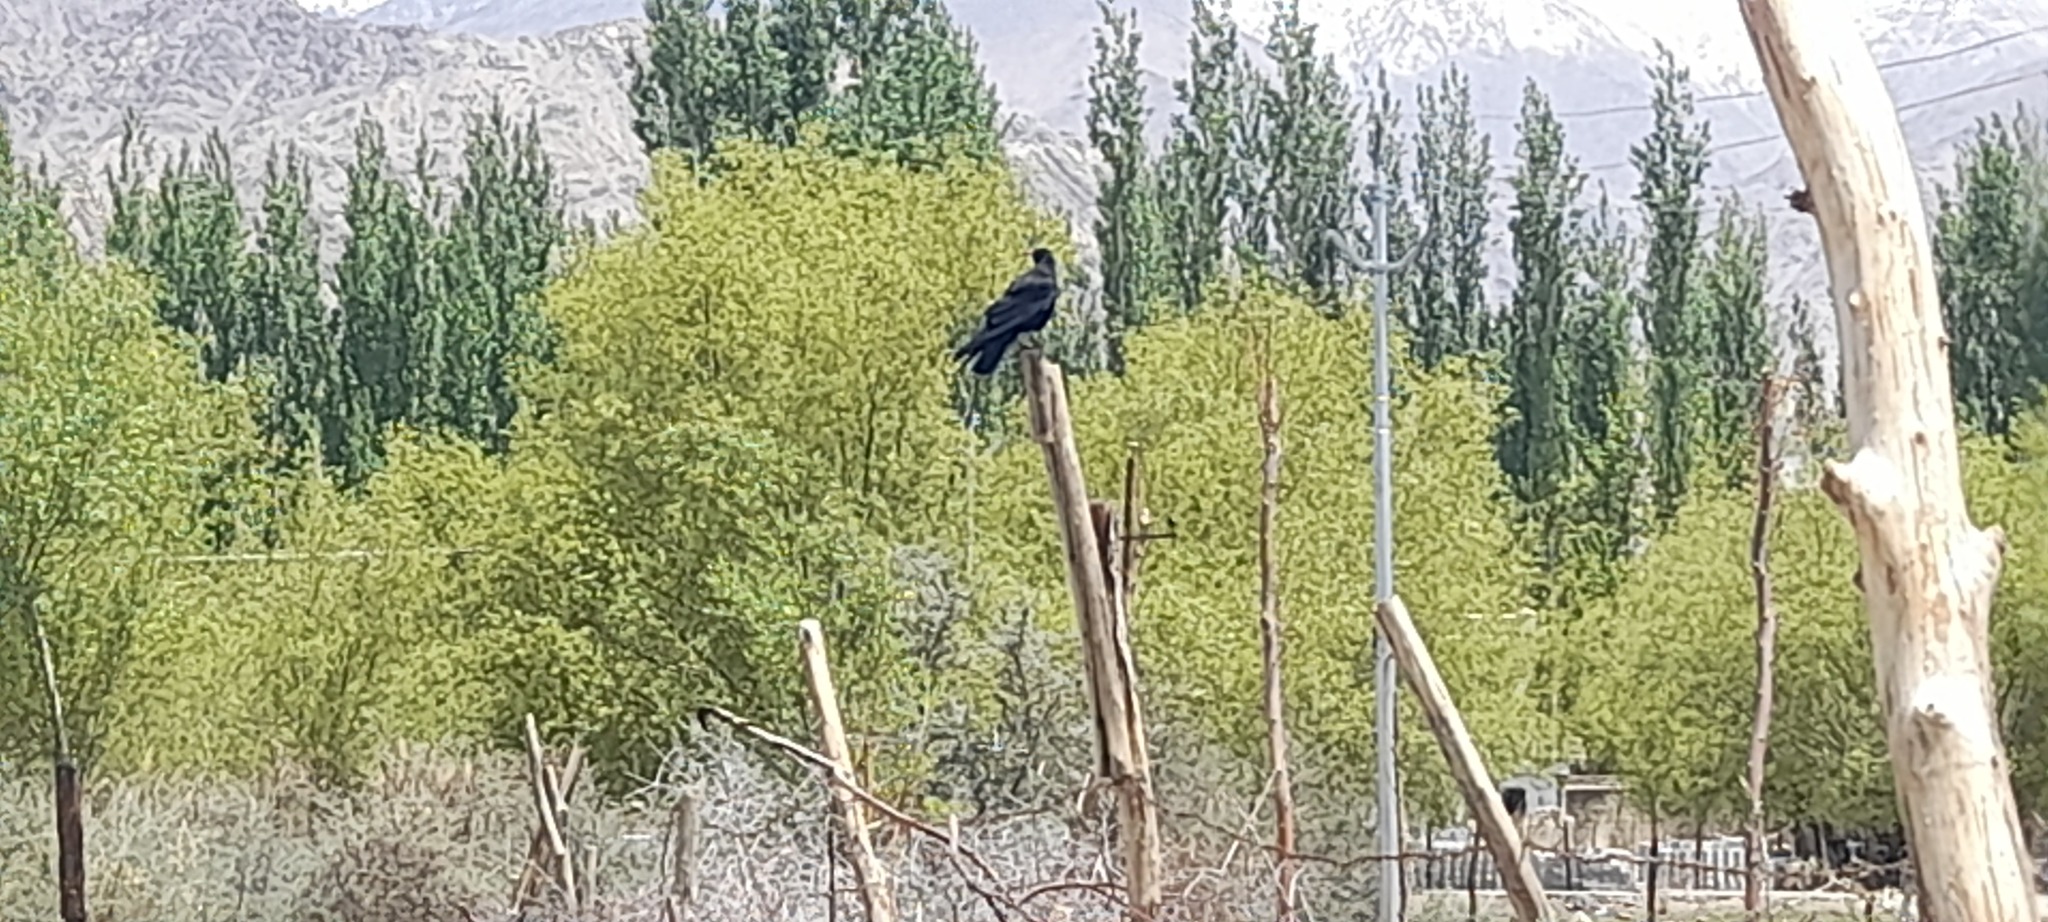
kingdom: Animalia
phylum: Chordata
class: Aves
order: Passeriformes
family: Corvidae
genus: Pyrrhocorax
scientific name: Pyrrhocorax pyrrhocorax
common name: Red-billed chough
